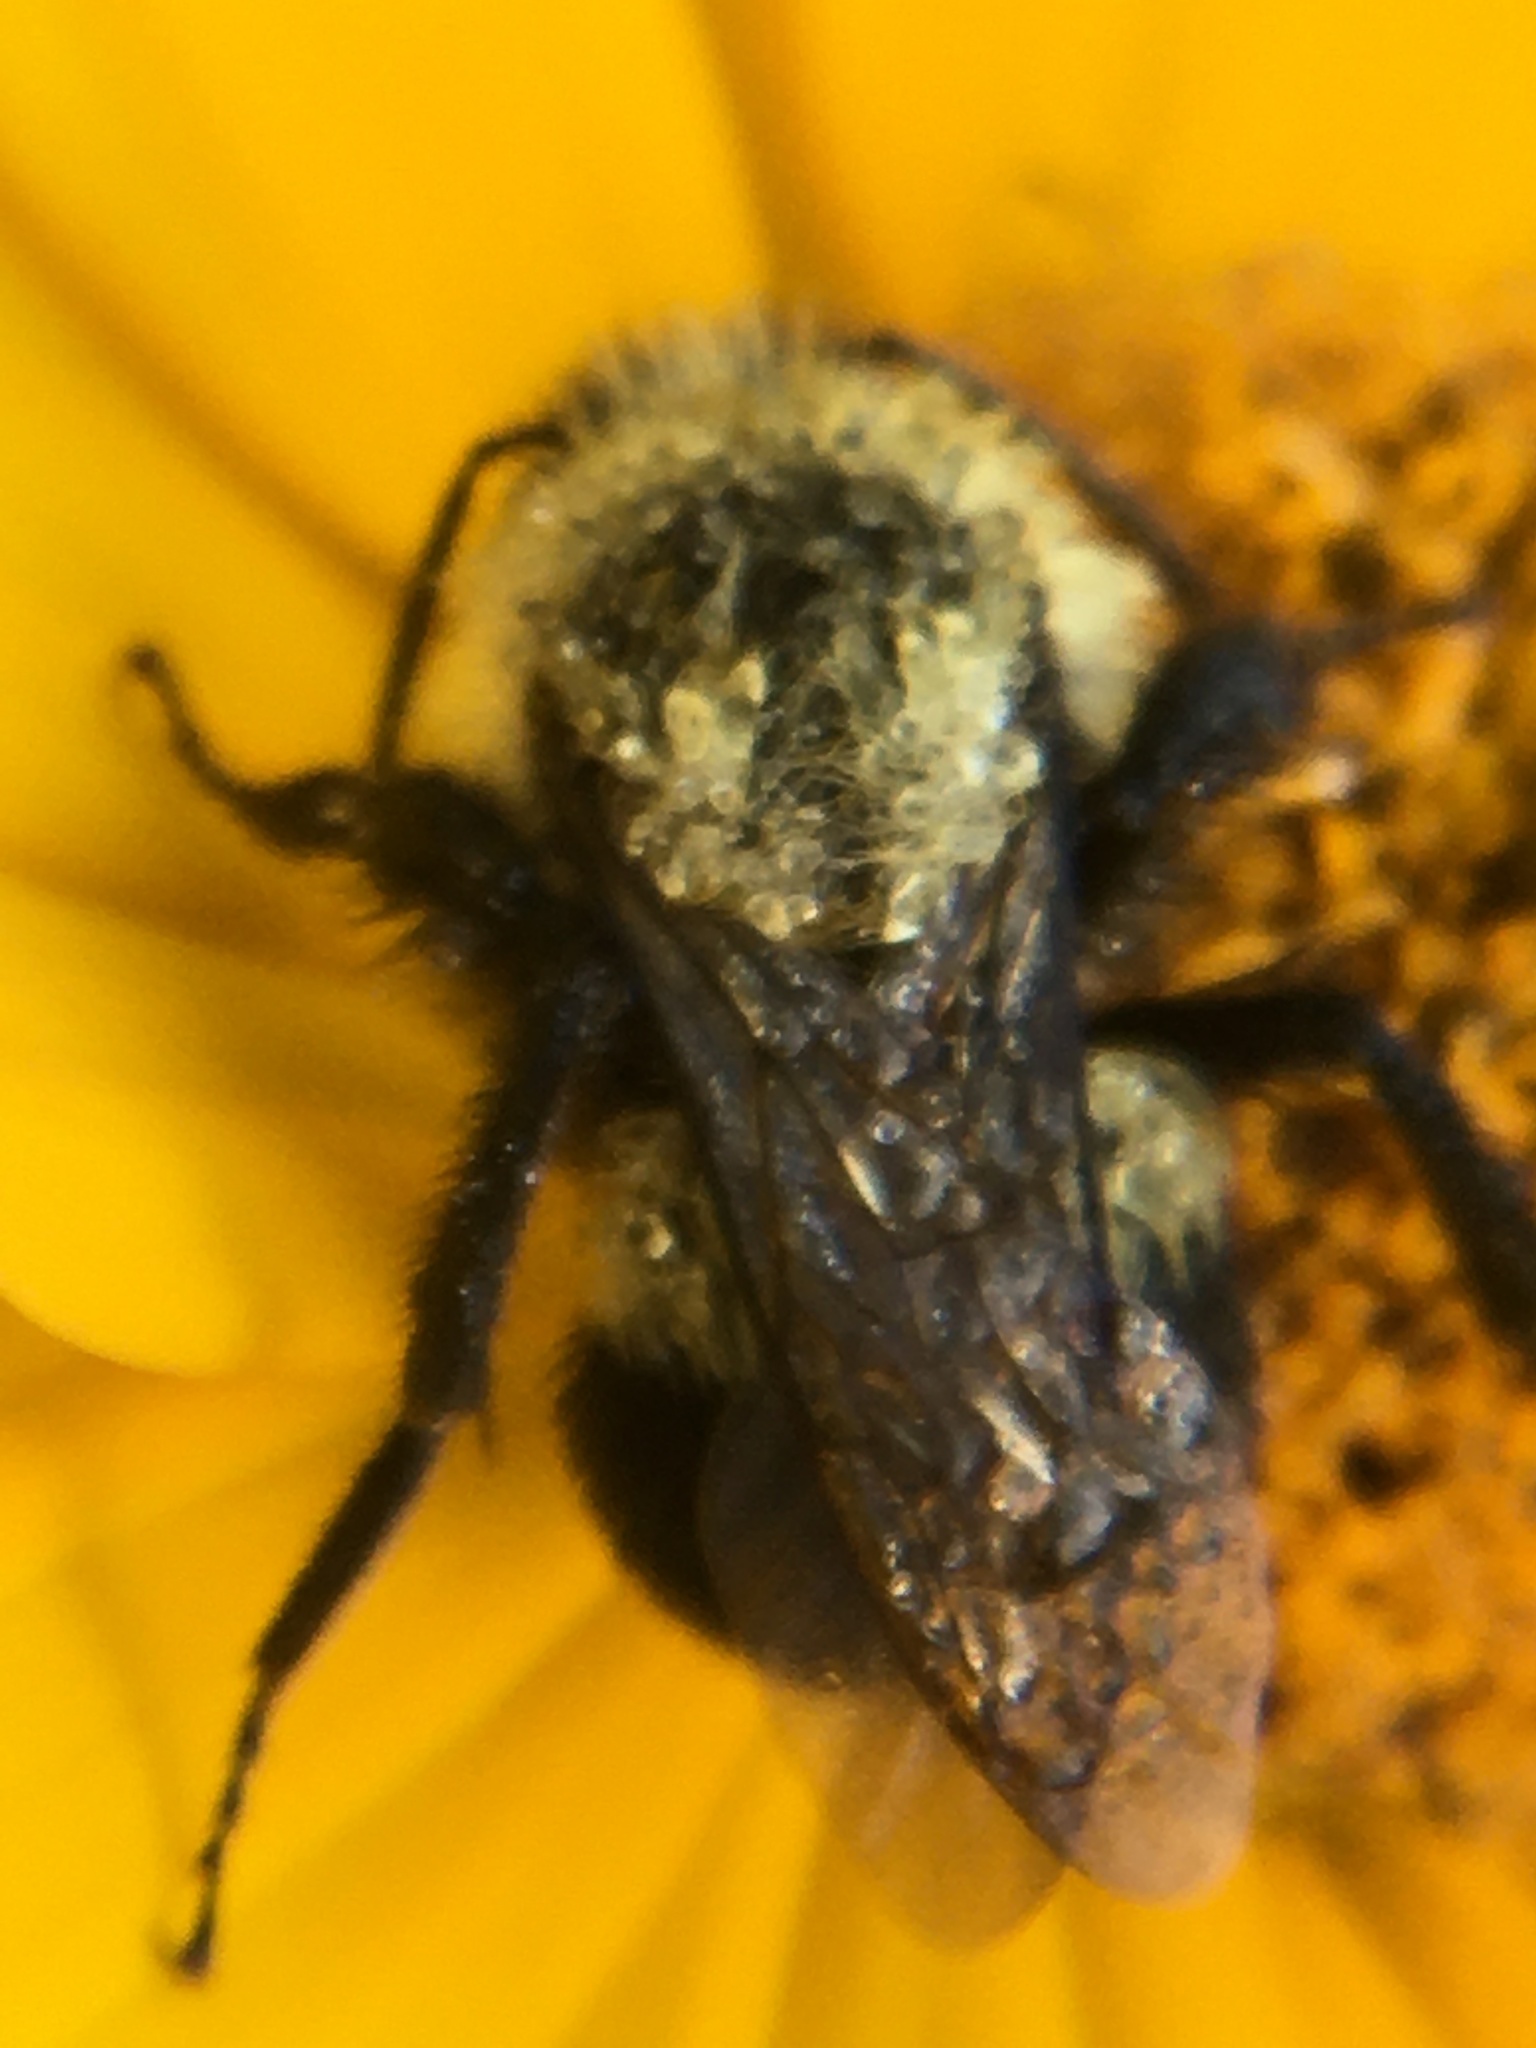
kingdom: Animalia
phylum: Arthropoda
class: Insecta
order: Hymenoptera
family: Apidae
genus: Bombus
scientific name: Bombus impatiens
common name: Common eastern bumble bee
